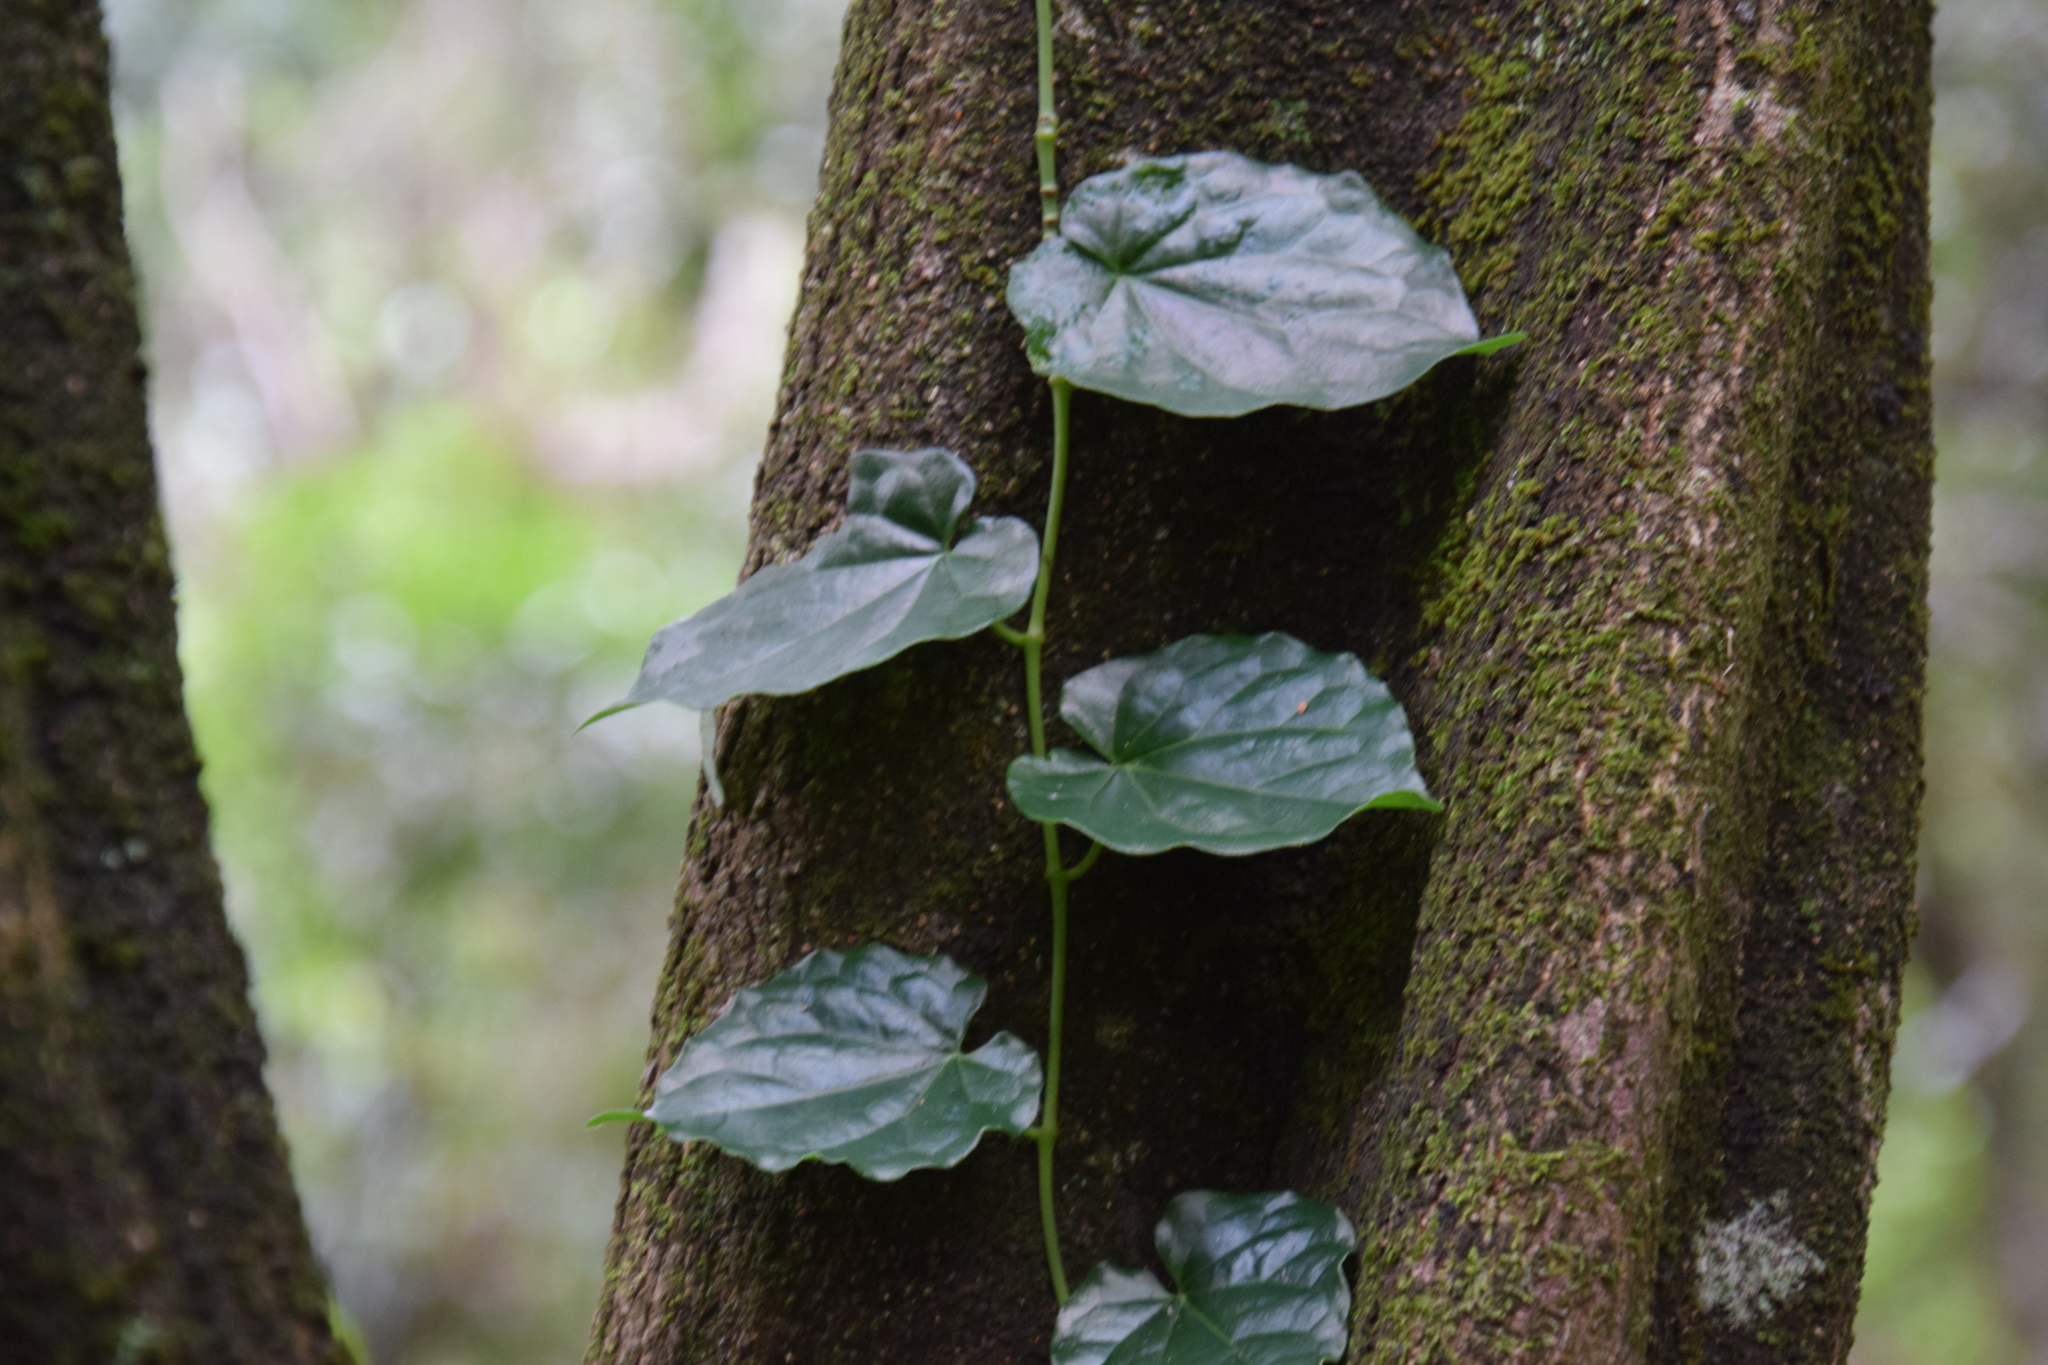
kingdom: Plantae
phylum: Tracheophyta
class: Magnoliopsida
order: Piperales
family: Piperaceae
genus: Piper
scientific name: Piper hederaceum
